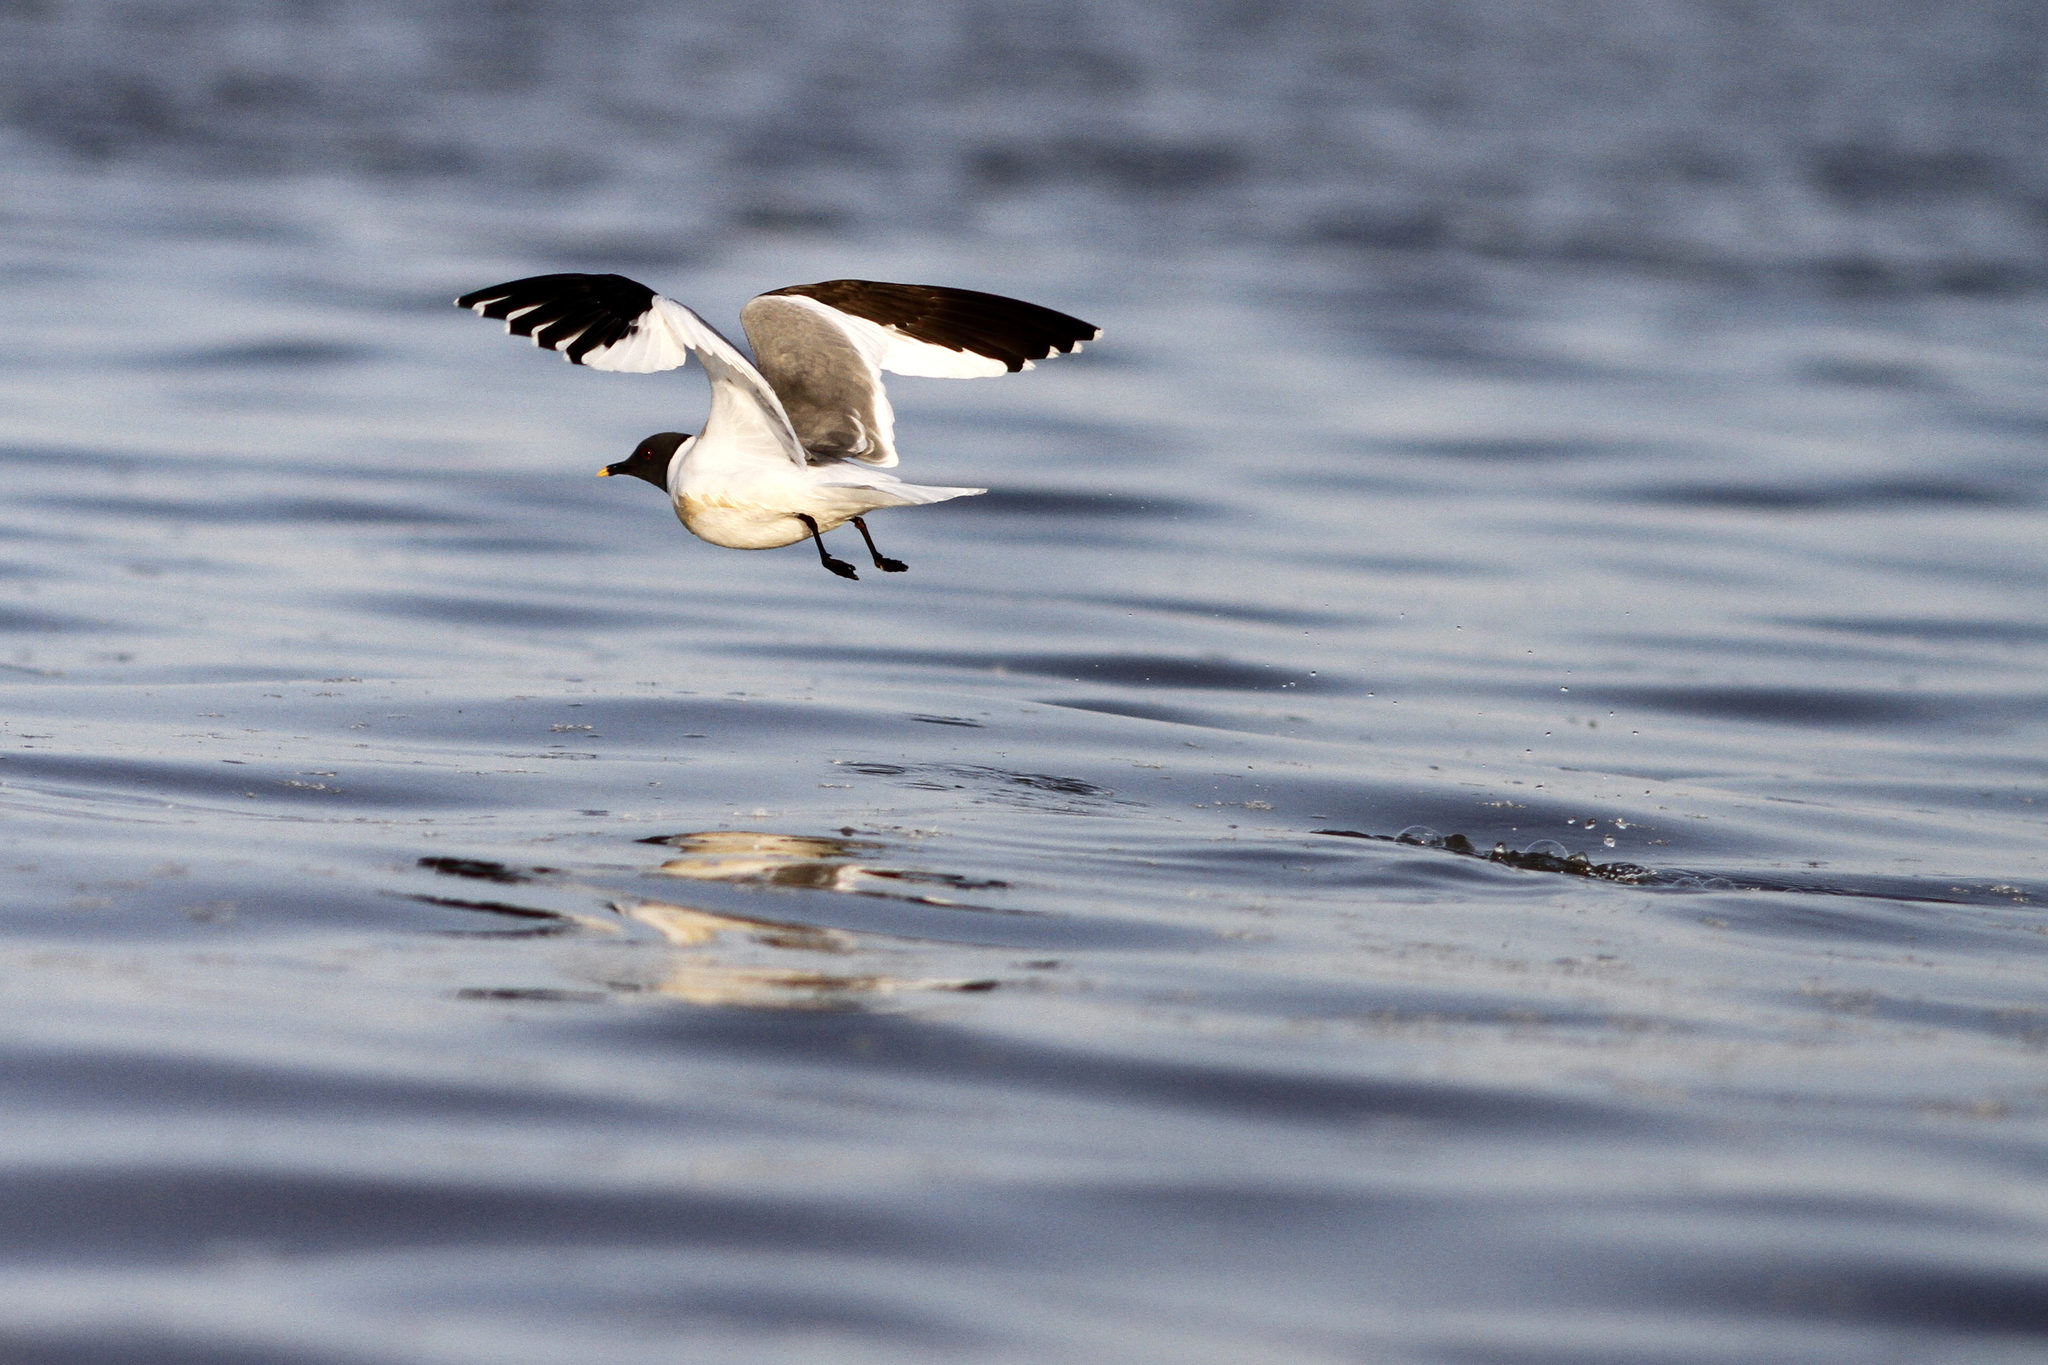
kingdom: Animalia
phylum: Chordata
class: Aves
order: Charadriiformes
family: Laridae
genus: Xema
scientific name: Xema sabini
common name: Sabine's gull
